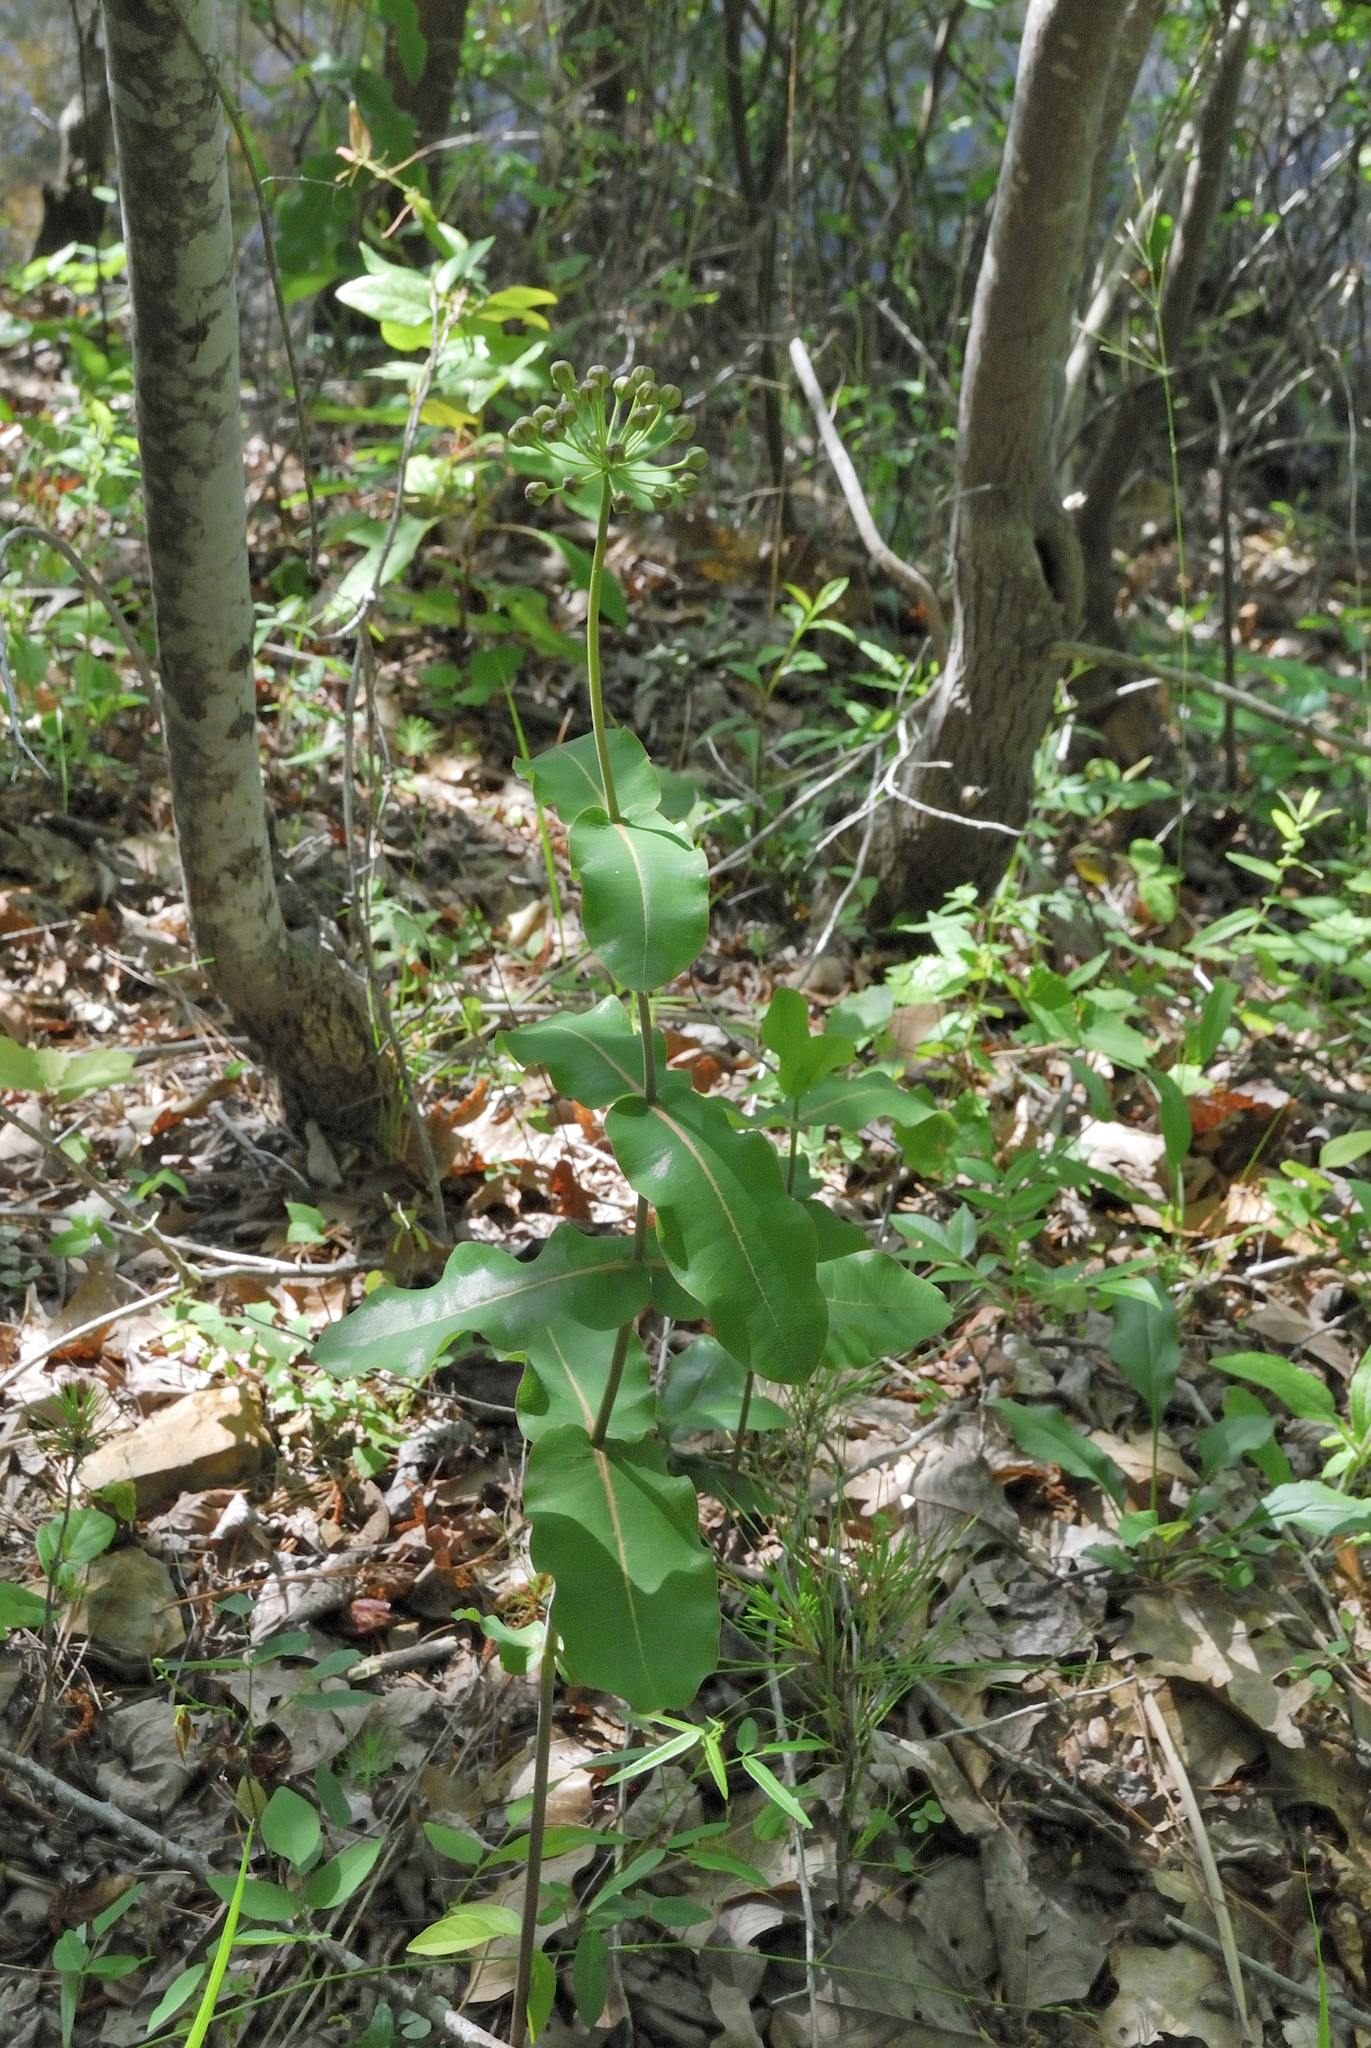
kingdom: Plantae
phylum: Tracheophyta
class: Magnoliopsida
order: Gentianales
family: Apocynaceae
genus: Asclepias
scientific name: Asclepias amplexicaulis
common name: Blunt-leaf milkweed
